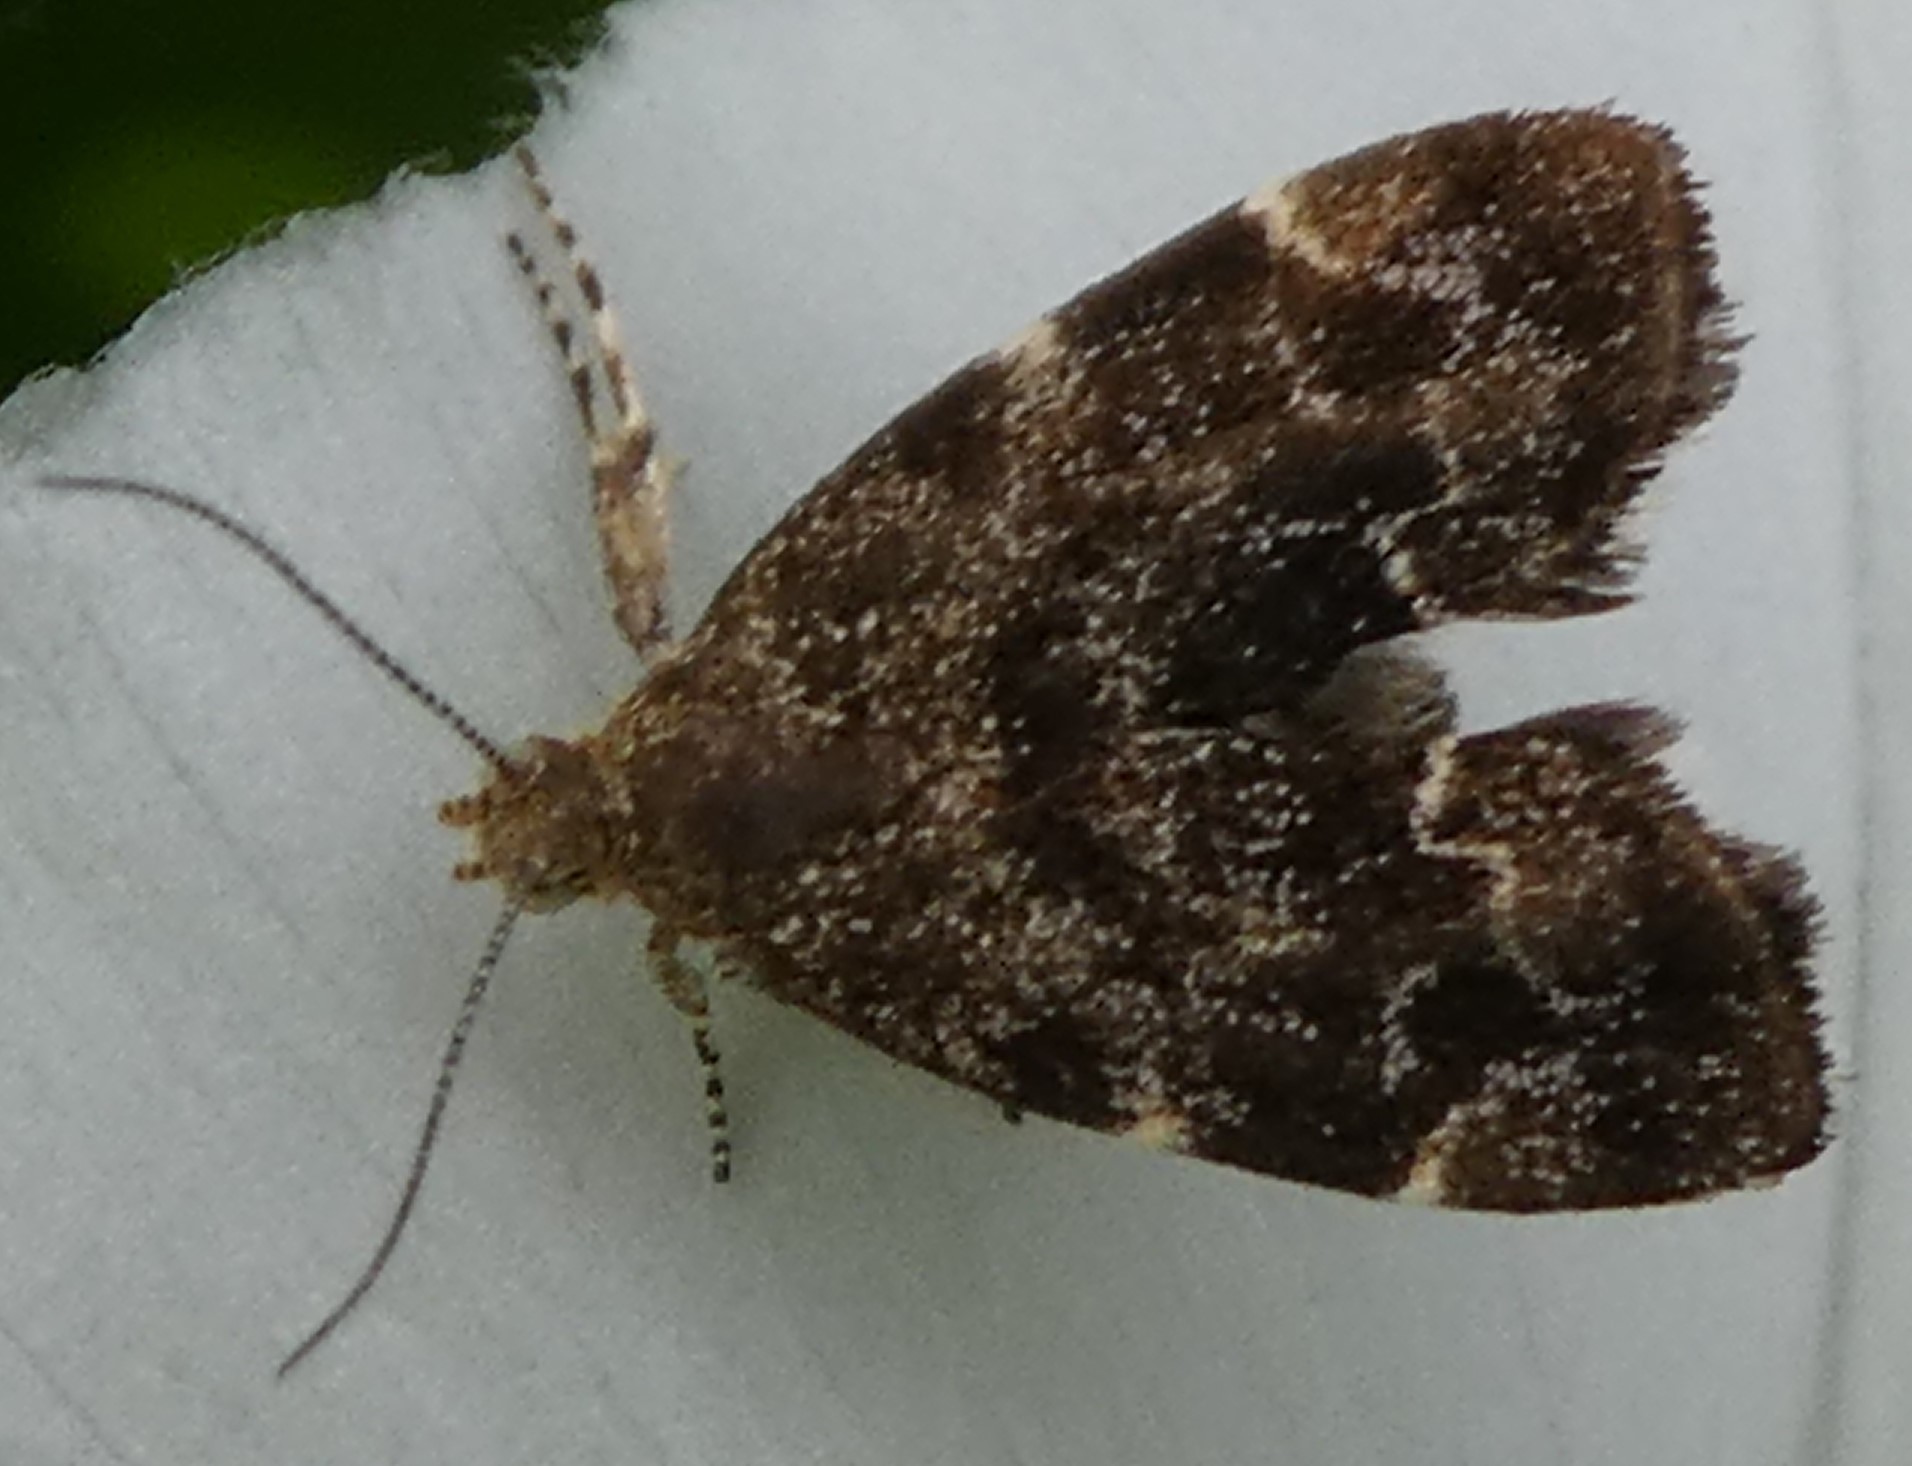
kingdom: Animalia
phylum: Arthropoda
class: Insecta
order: Lepidoptera
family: Choreutidae
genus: Anthophila
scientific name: Anthophila fabriciana
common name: Nettle-tap
